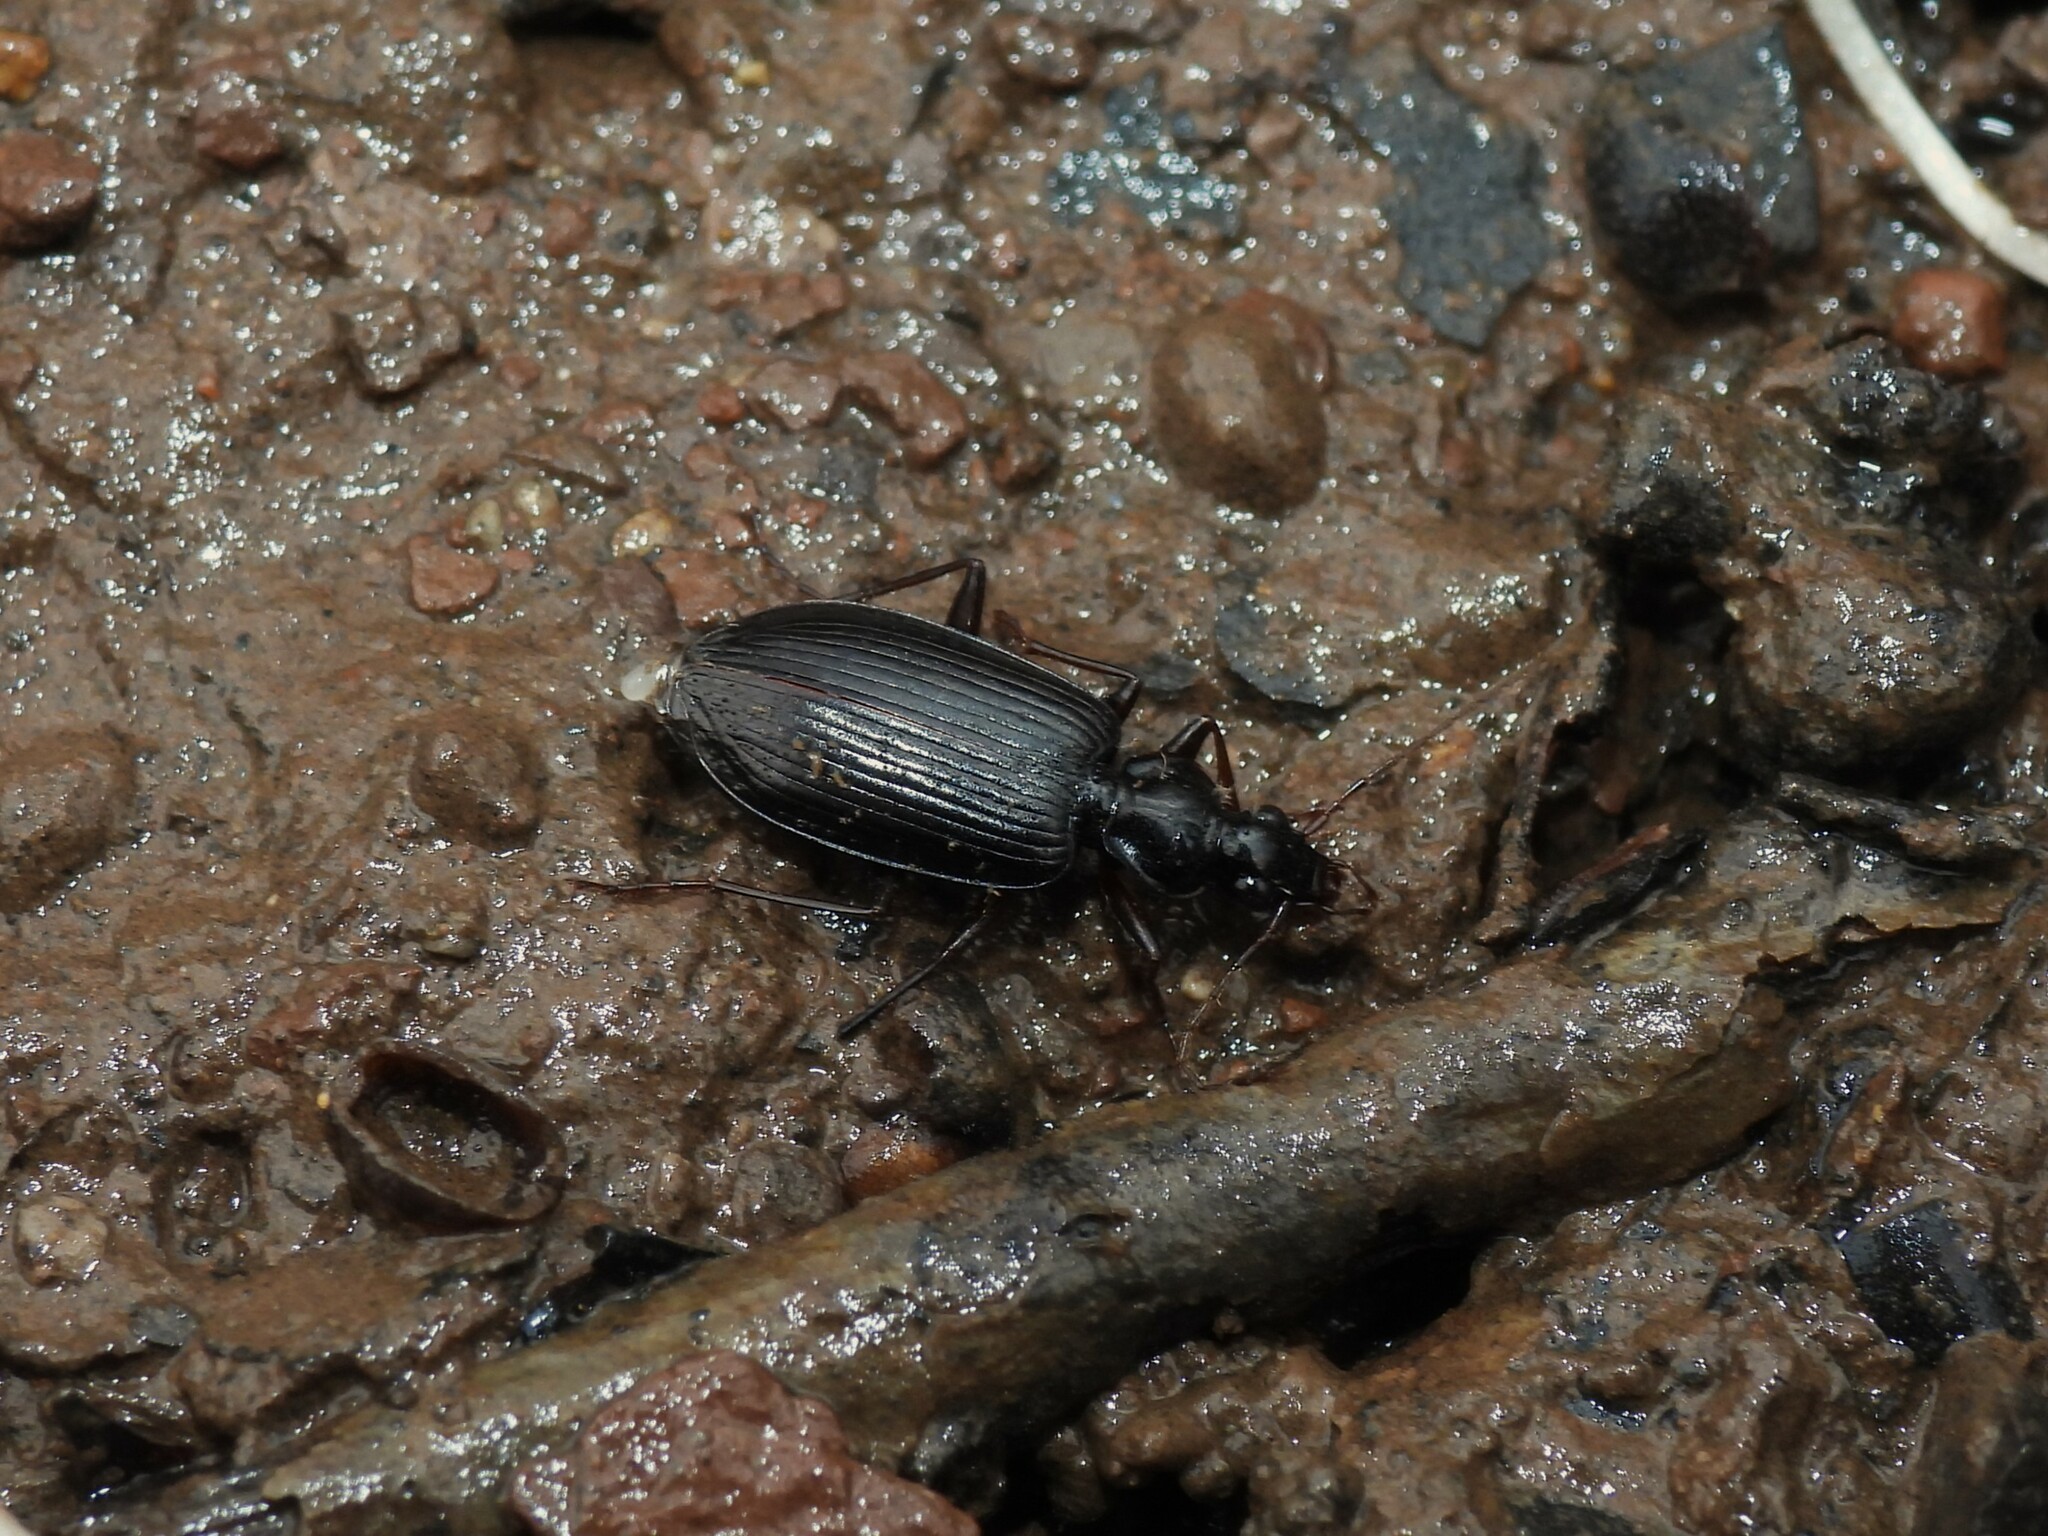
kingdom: Animalia
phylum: Arthropoda
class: Insecta
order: Coleoptera
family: Carabidae
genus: Platynus
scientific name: Platynus cincticollis
